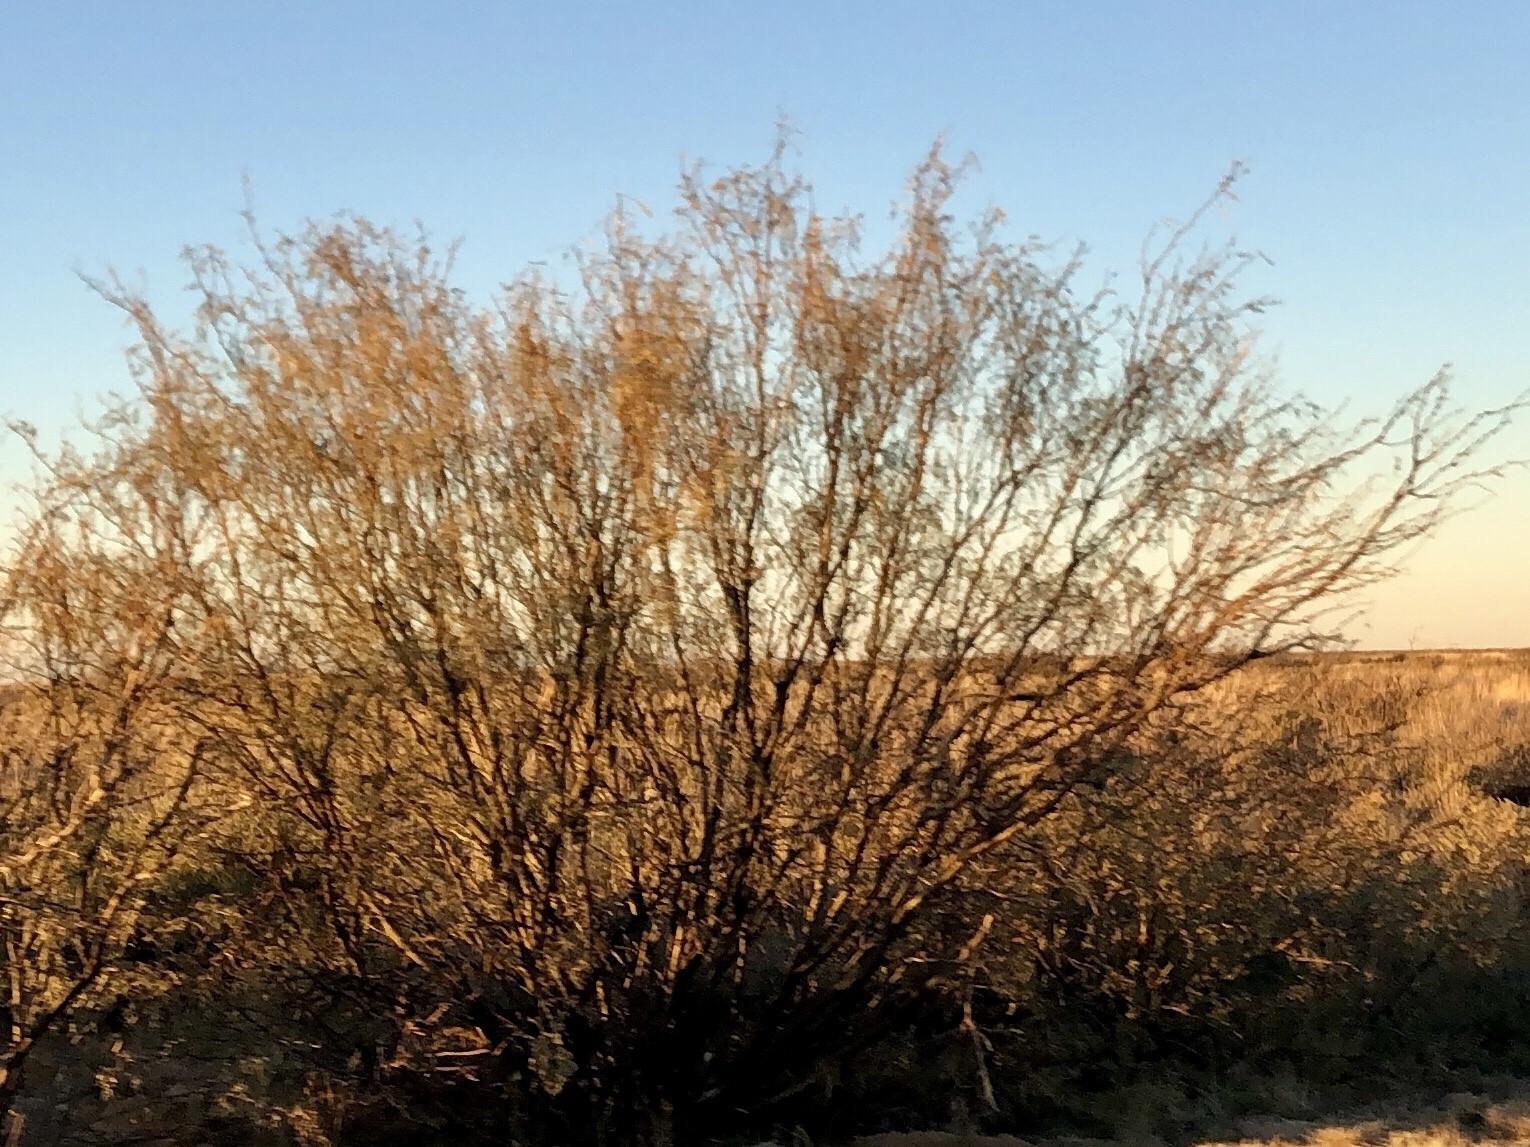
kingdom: Plantae
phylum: Tracheophyta
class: Magnoliopsida
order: Fabales
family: Fabaceae
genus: Prosopis
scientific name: Prosopis glandulosa
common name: Honey mesquite
